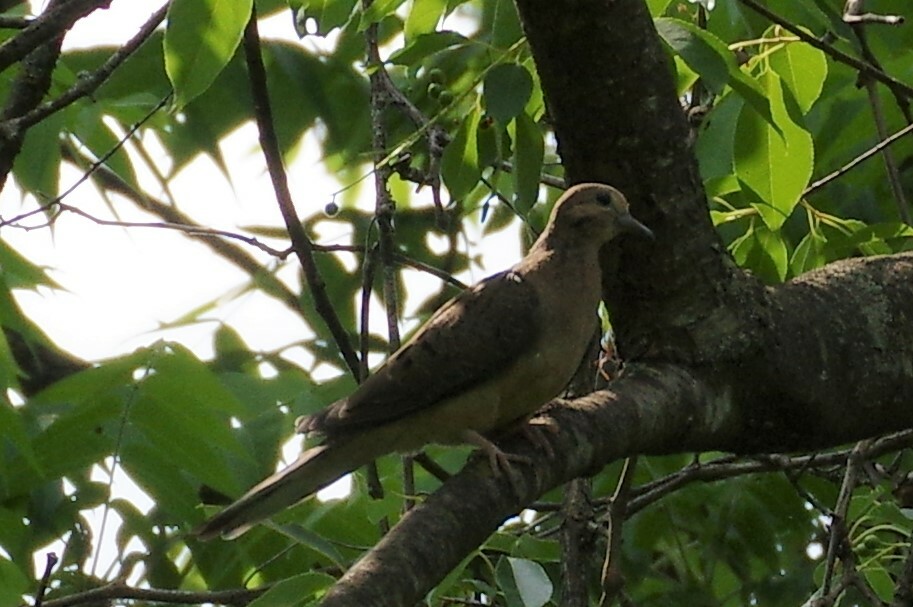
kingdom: Animalia
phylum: Chordata
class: Aves
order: Columbiformes
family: Columbidae
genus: Zenaida
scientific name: Zenaida macroura
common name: Mourning dove
